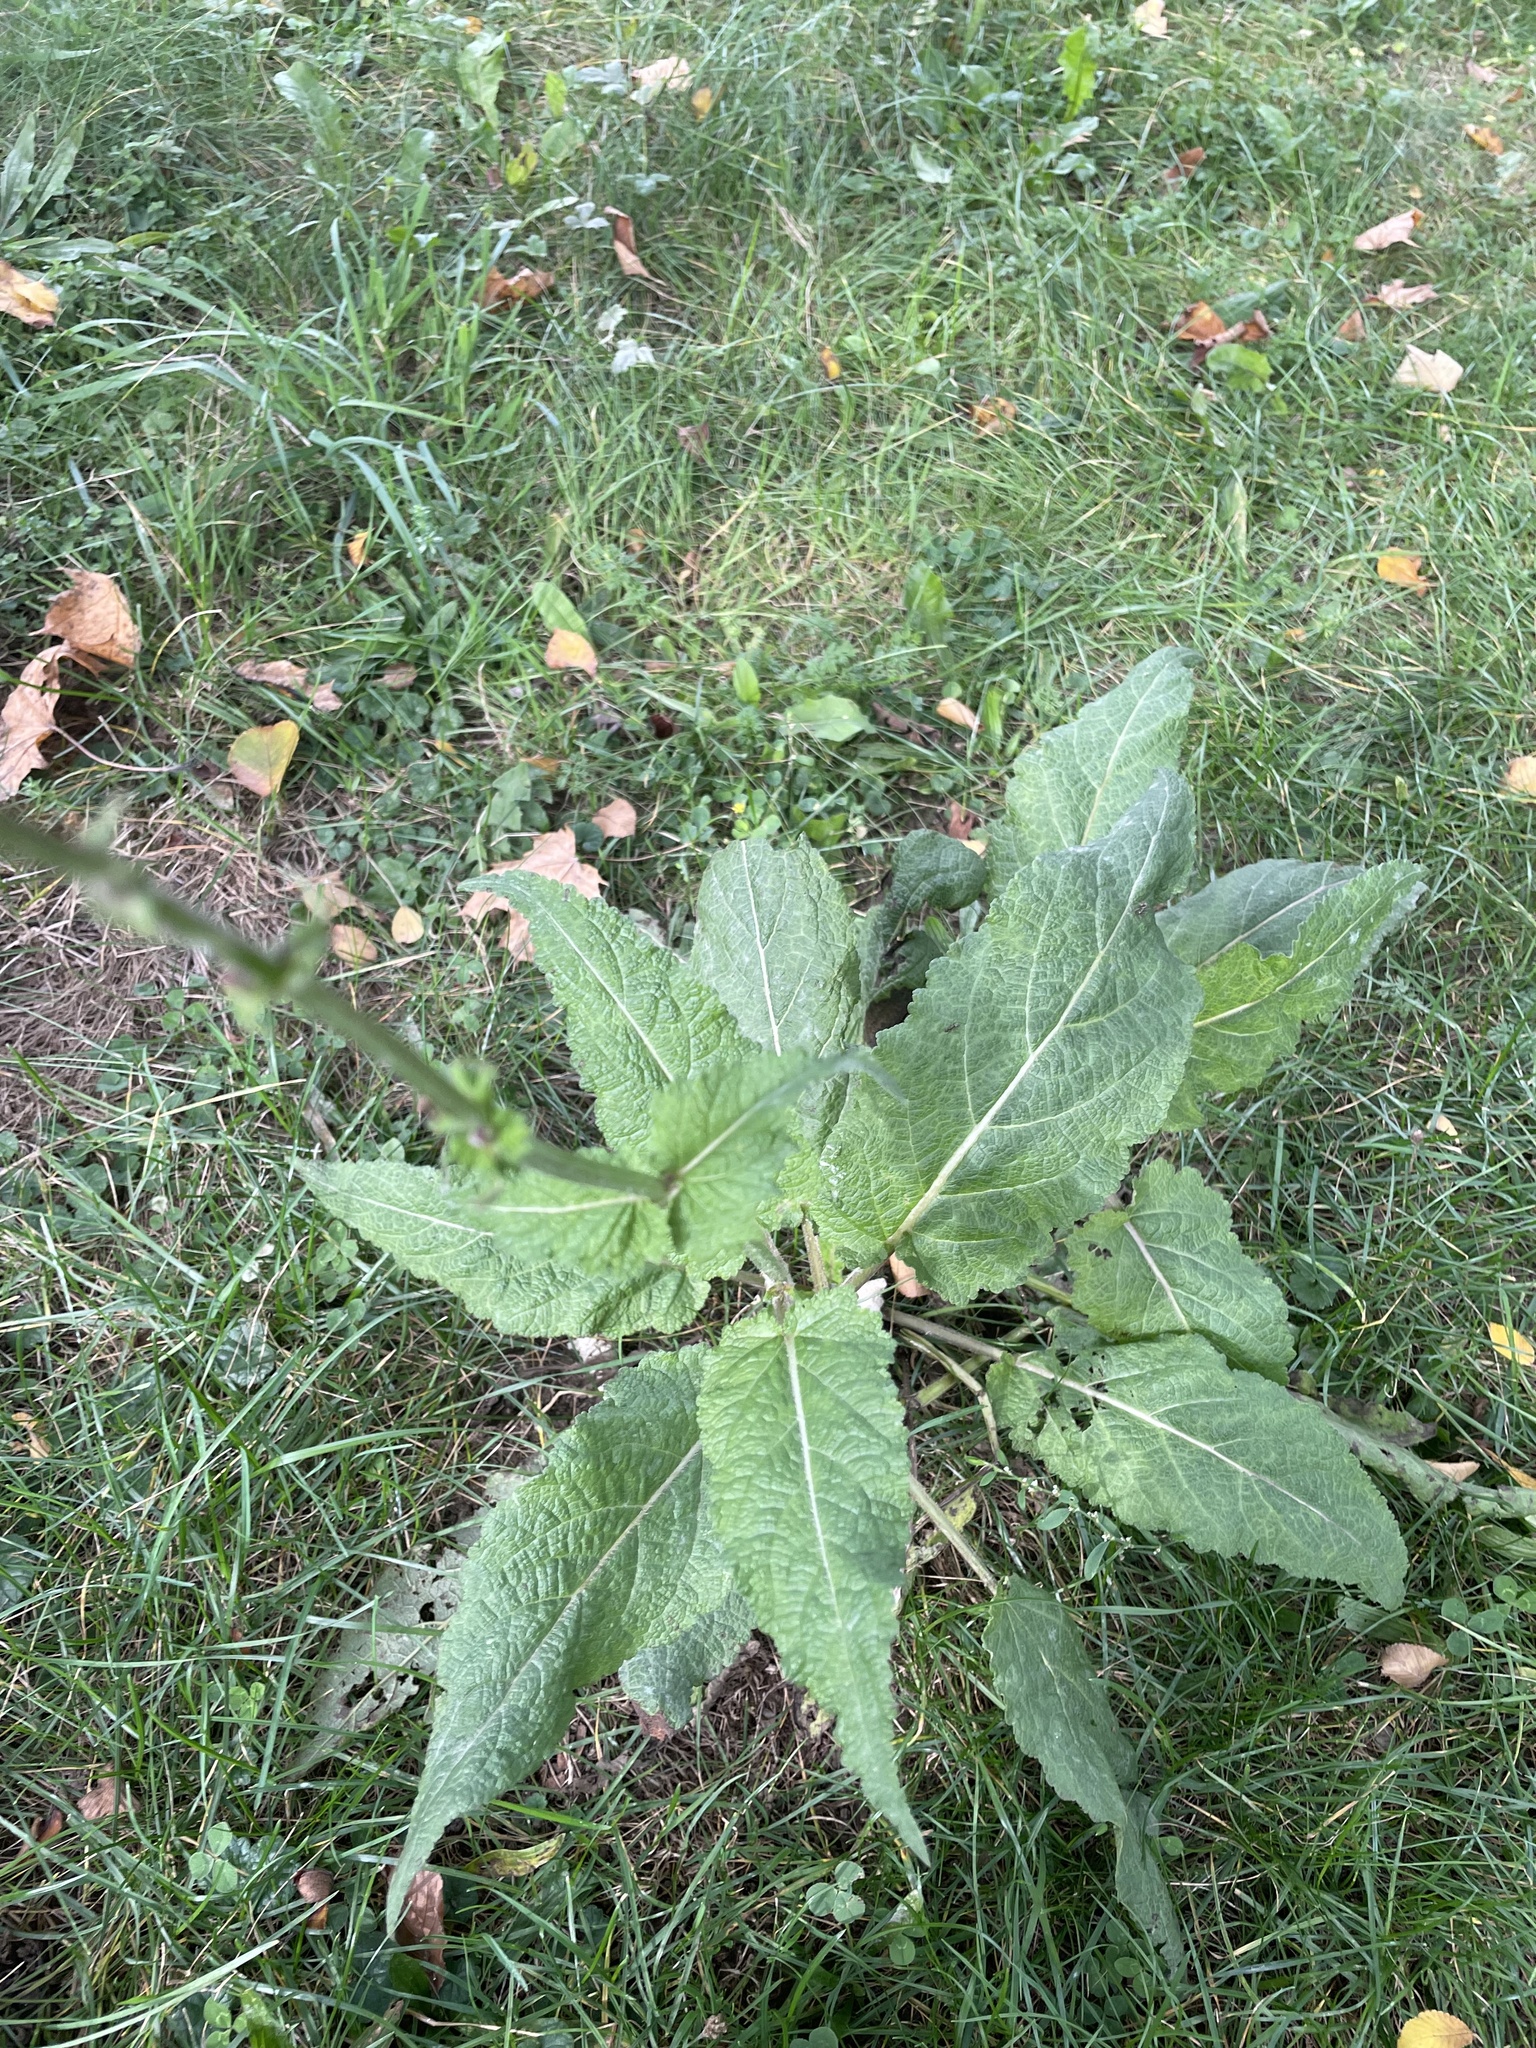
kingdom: Plantae
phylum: Tracheophyta
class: Magnoliopsida
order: Lamiales
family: Lamiaceae
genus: Salvia
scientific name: Salvia pratensis
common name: Meadow sage
